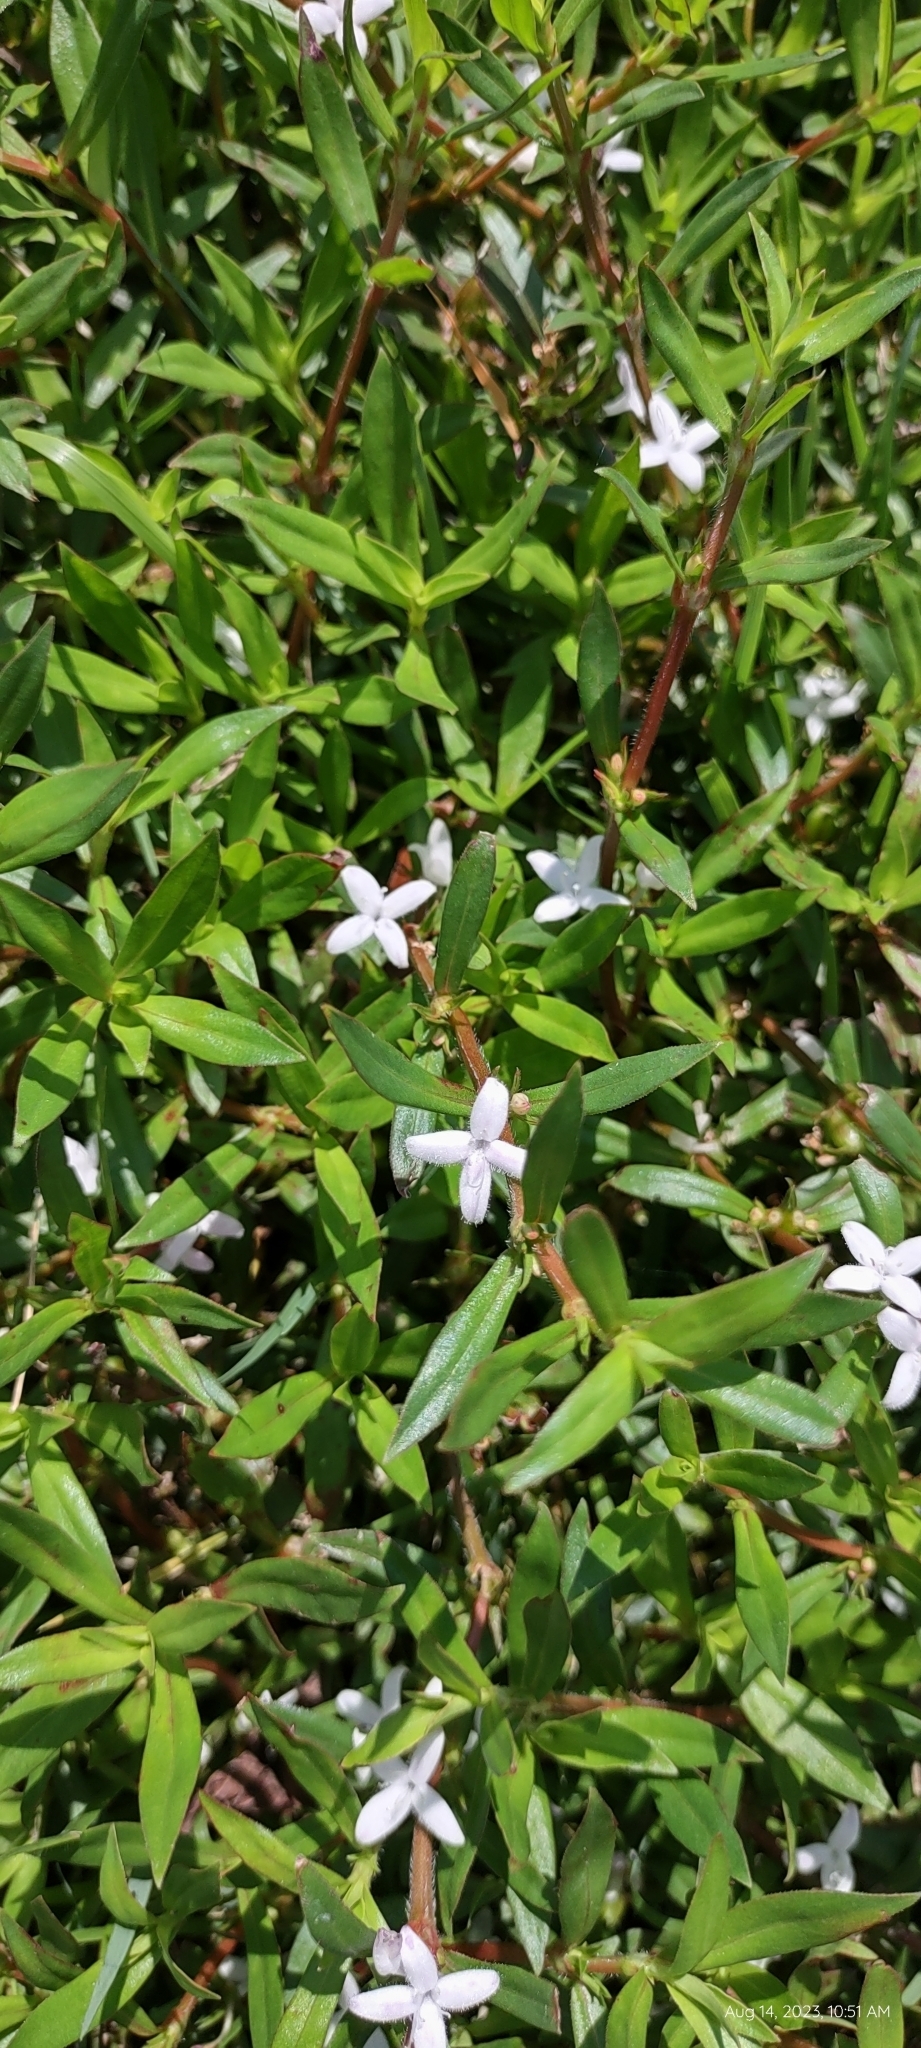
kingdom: Plantae
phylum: Tracheophyta
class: Magnoliopsida
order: Gentianales
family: Rubiaceae
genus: Diodia
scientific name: Diodia virginiana
